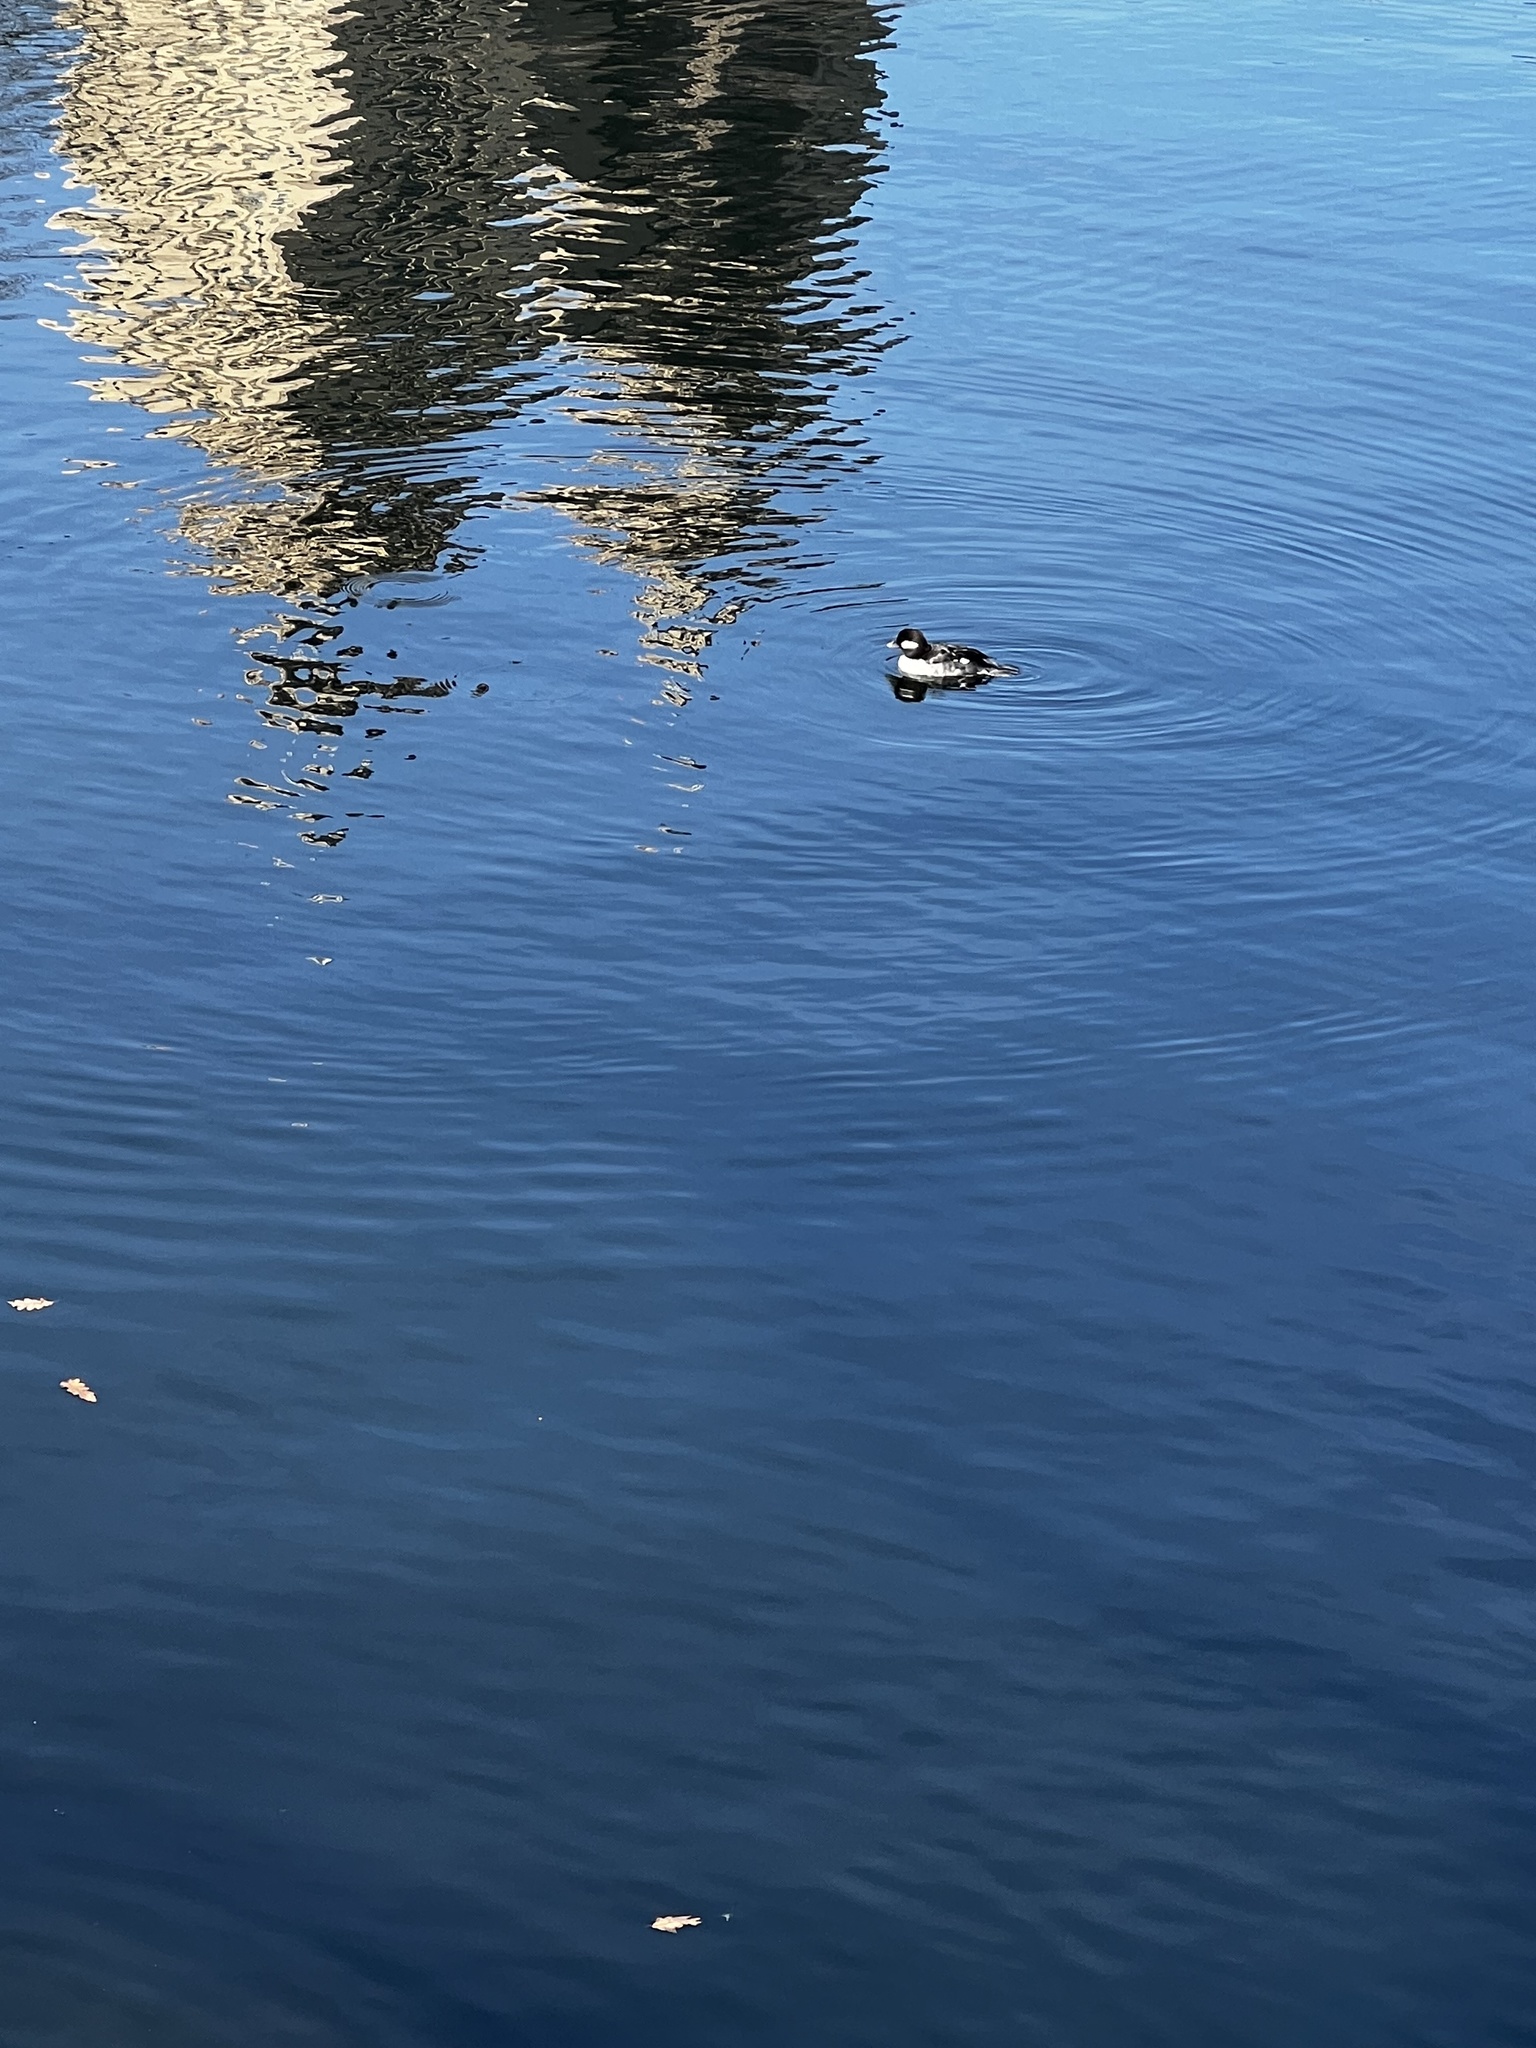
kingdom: Animalia
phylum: Chordata
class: Aves
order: Anseriformes
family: Anatidae
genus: Bucephala
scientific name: Bucephala albeola
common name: Bufflehead
